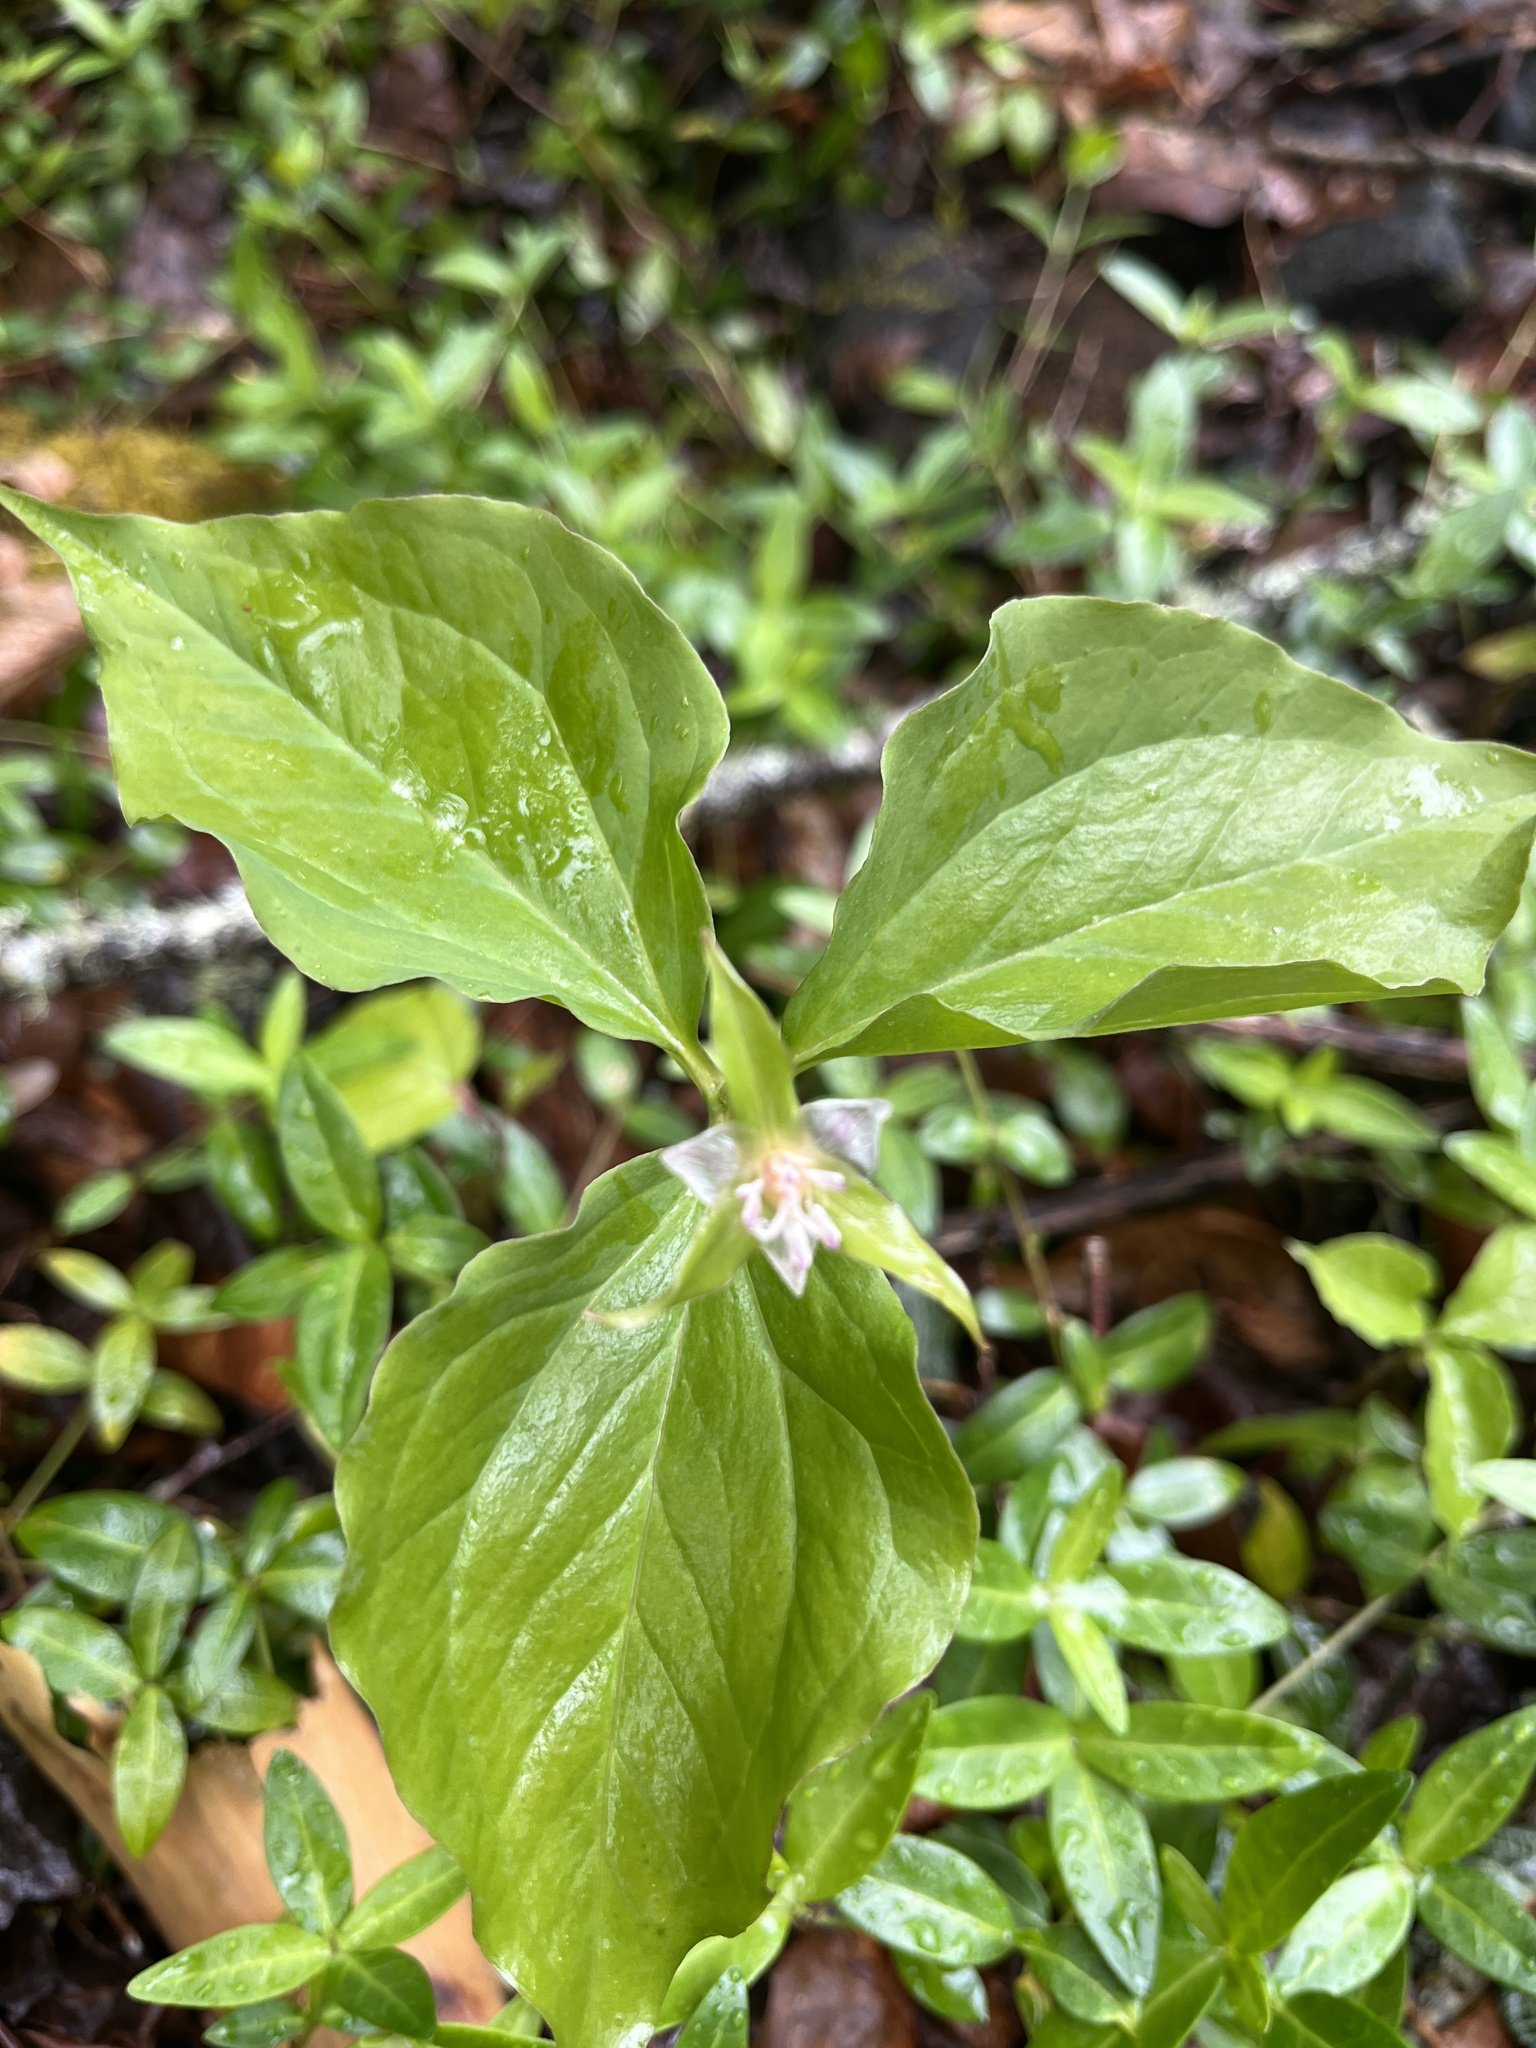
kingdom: Plantae
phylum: Tracheophyta
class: Liliopsida
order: Liliales
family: Melanthiaceae
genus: Trillium
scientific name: Trillium undulatum
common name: Paint trillium
